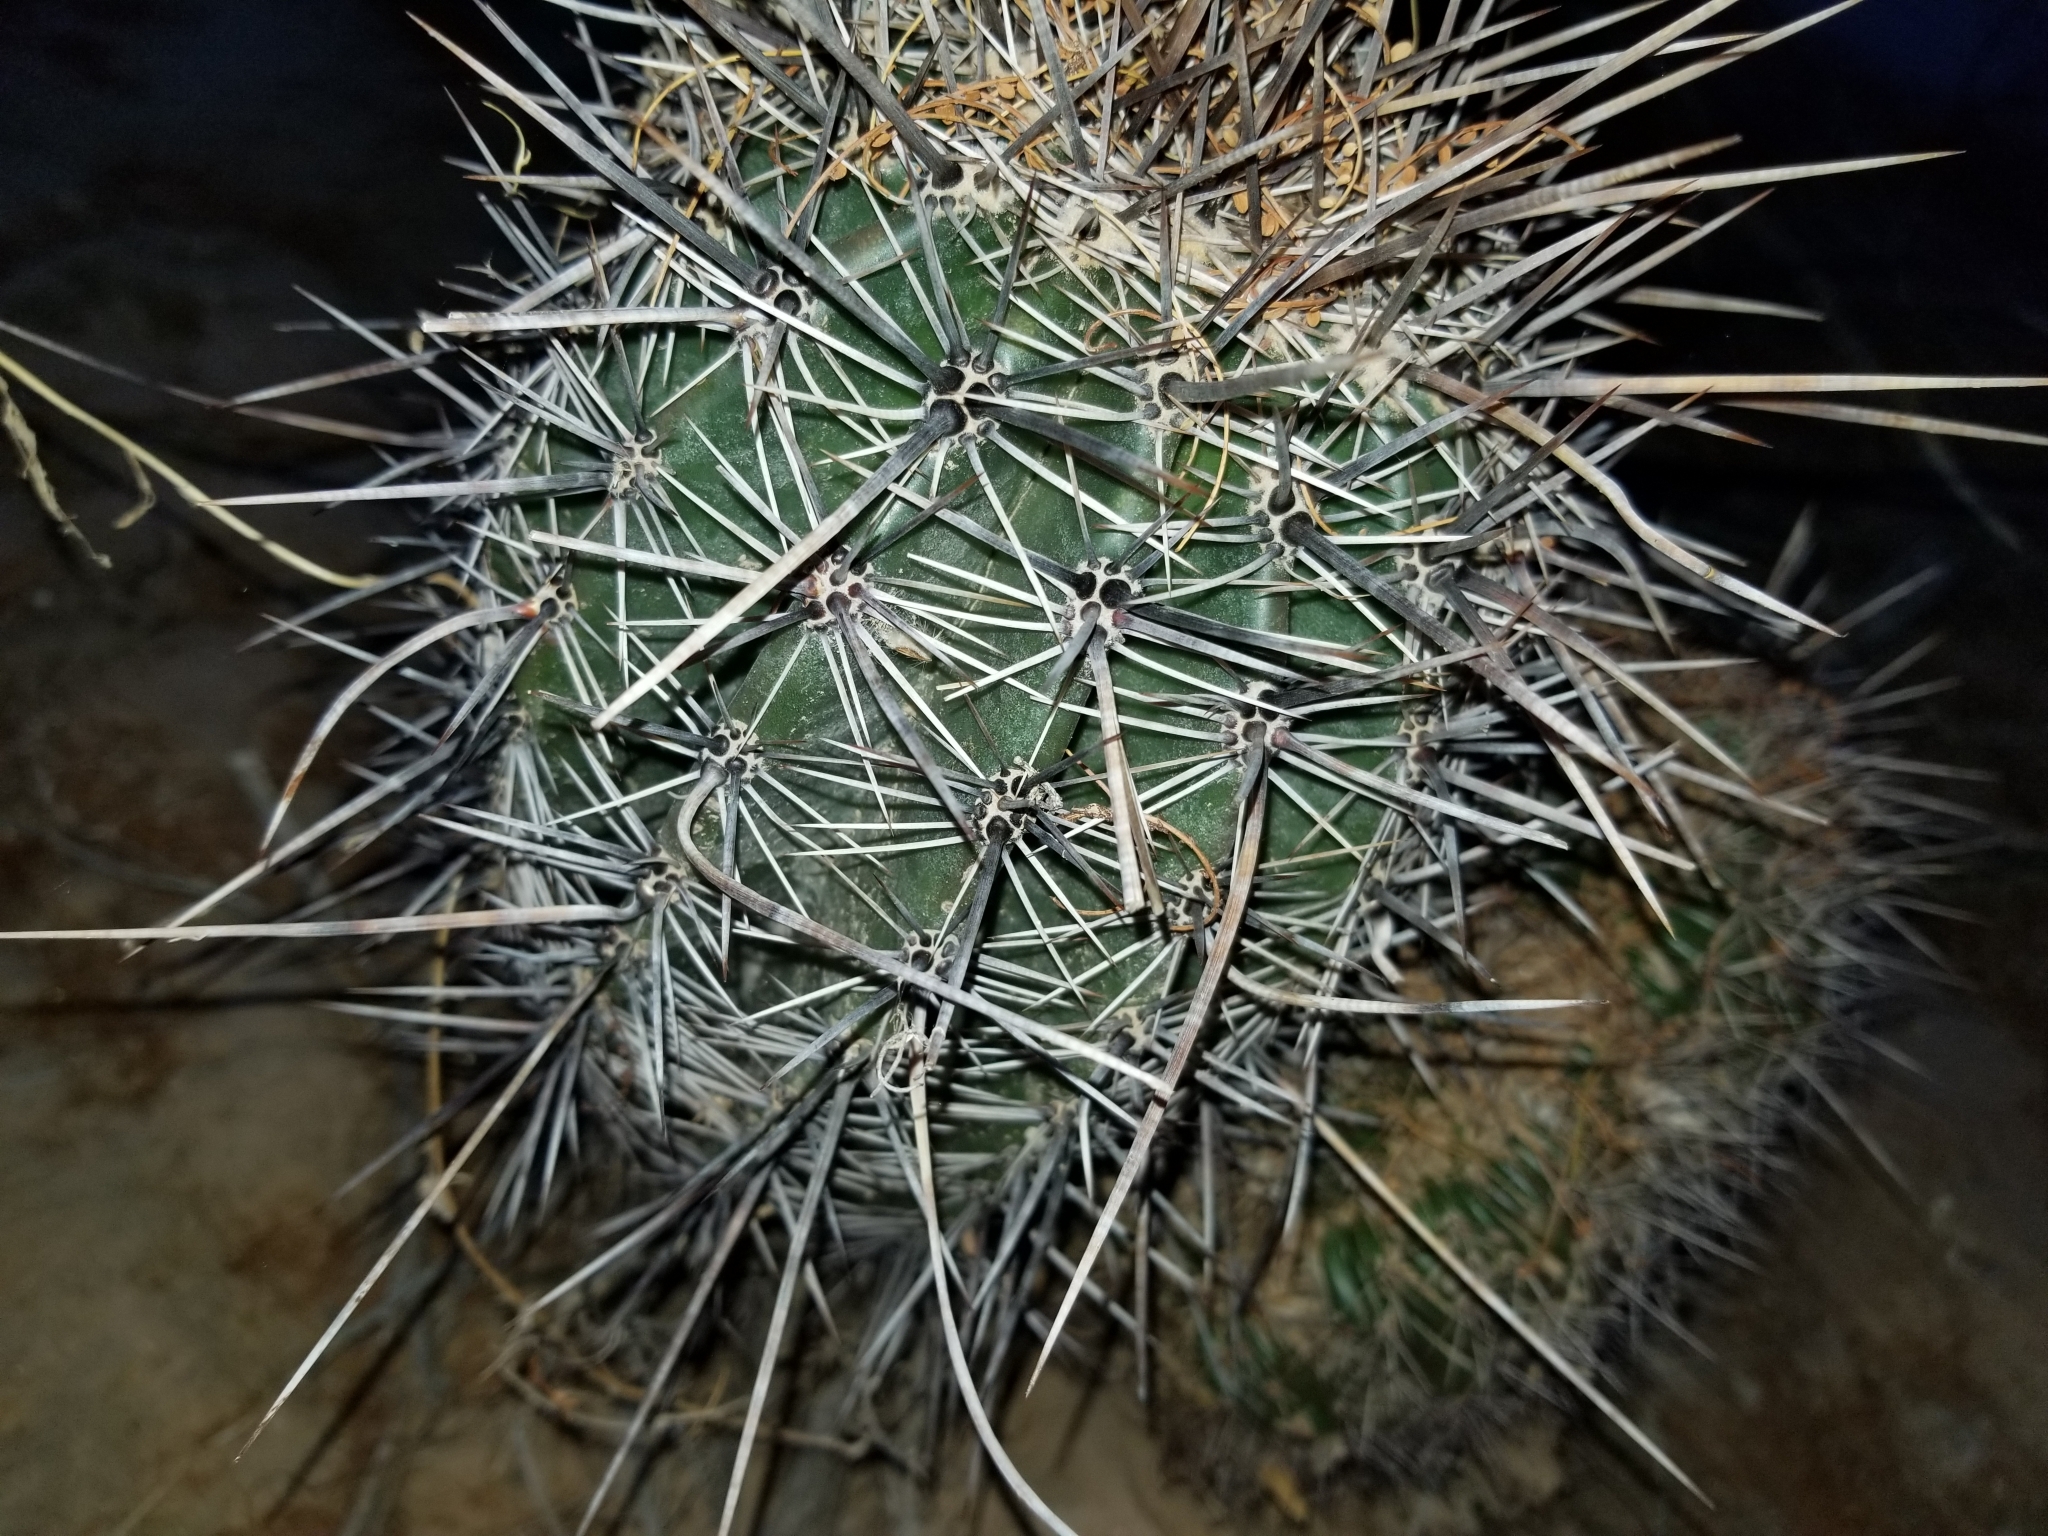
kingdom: Plantae
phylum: Tracheophyta
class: Magnoliopsida
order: Caryophyllales
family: Cactaceae
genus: Carnegiea
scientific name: Carnegiea gigantea
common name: Saguaro
